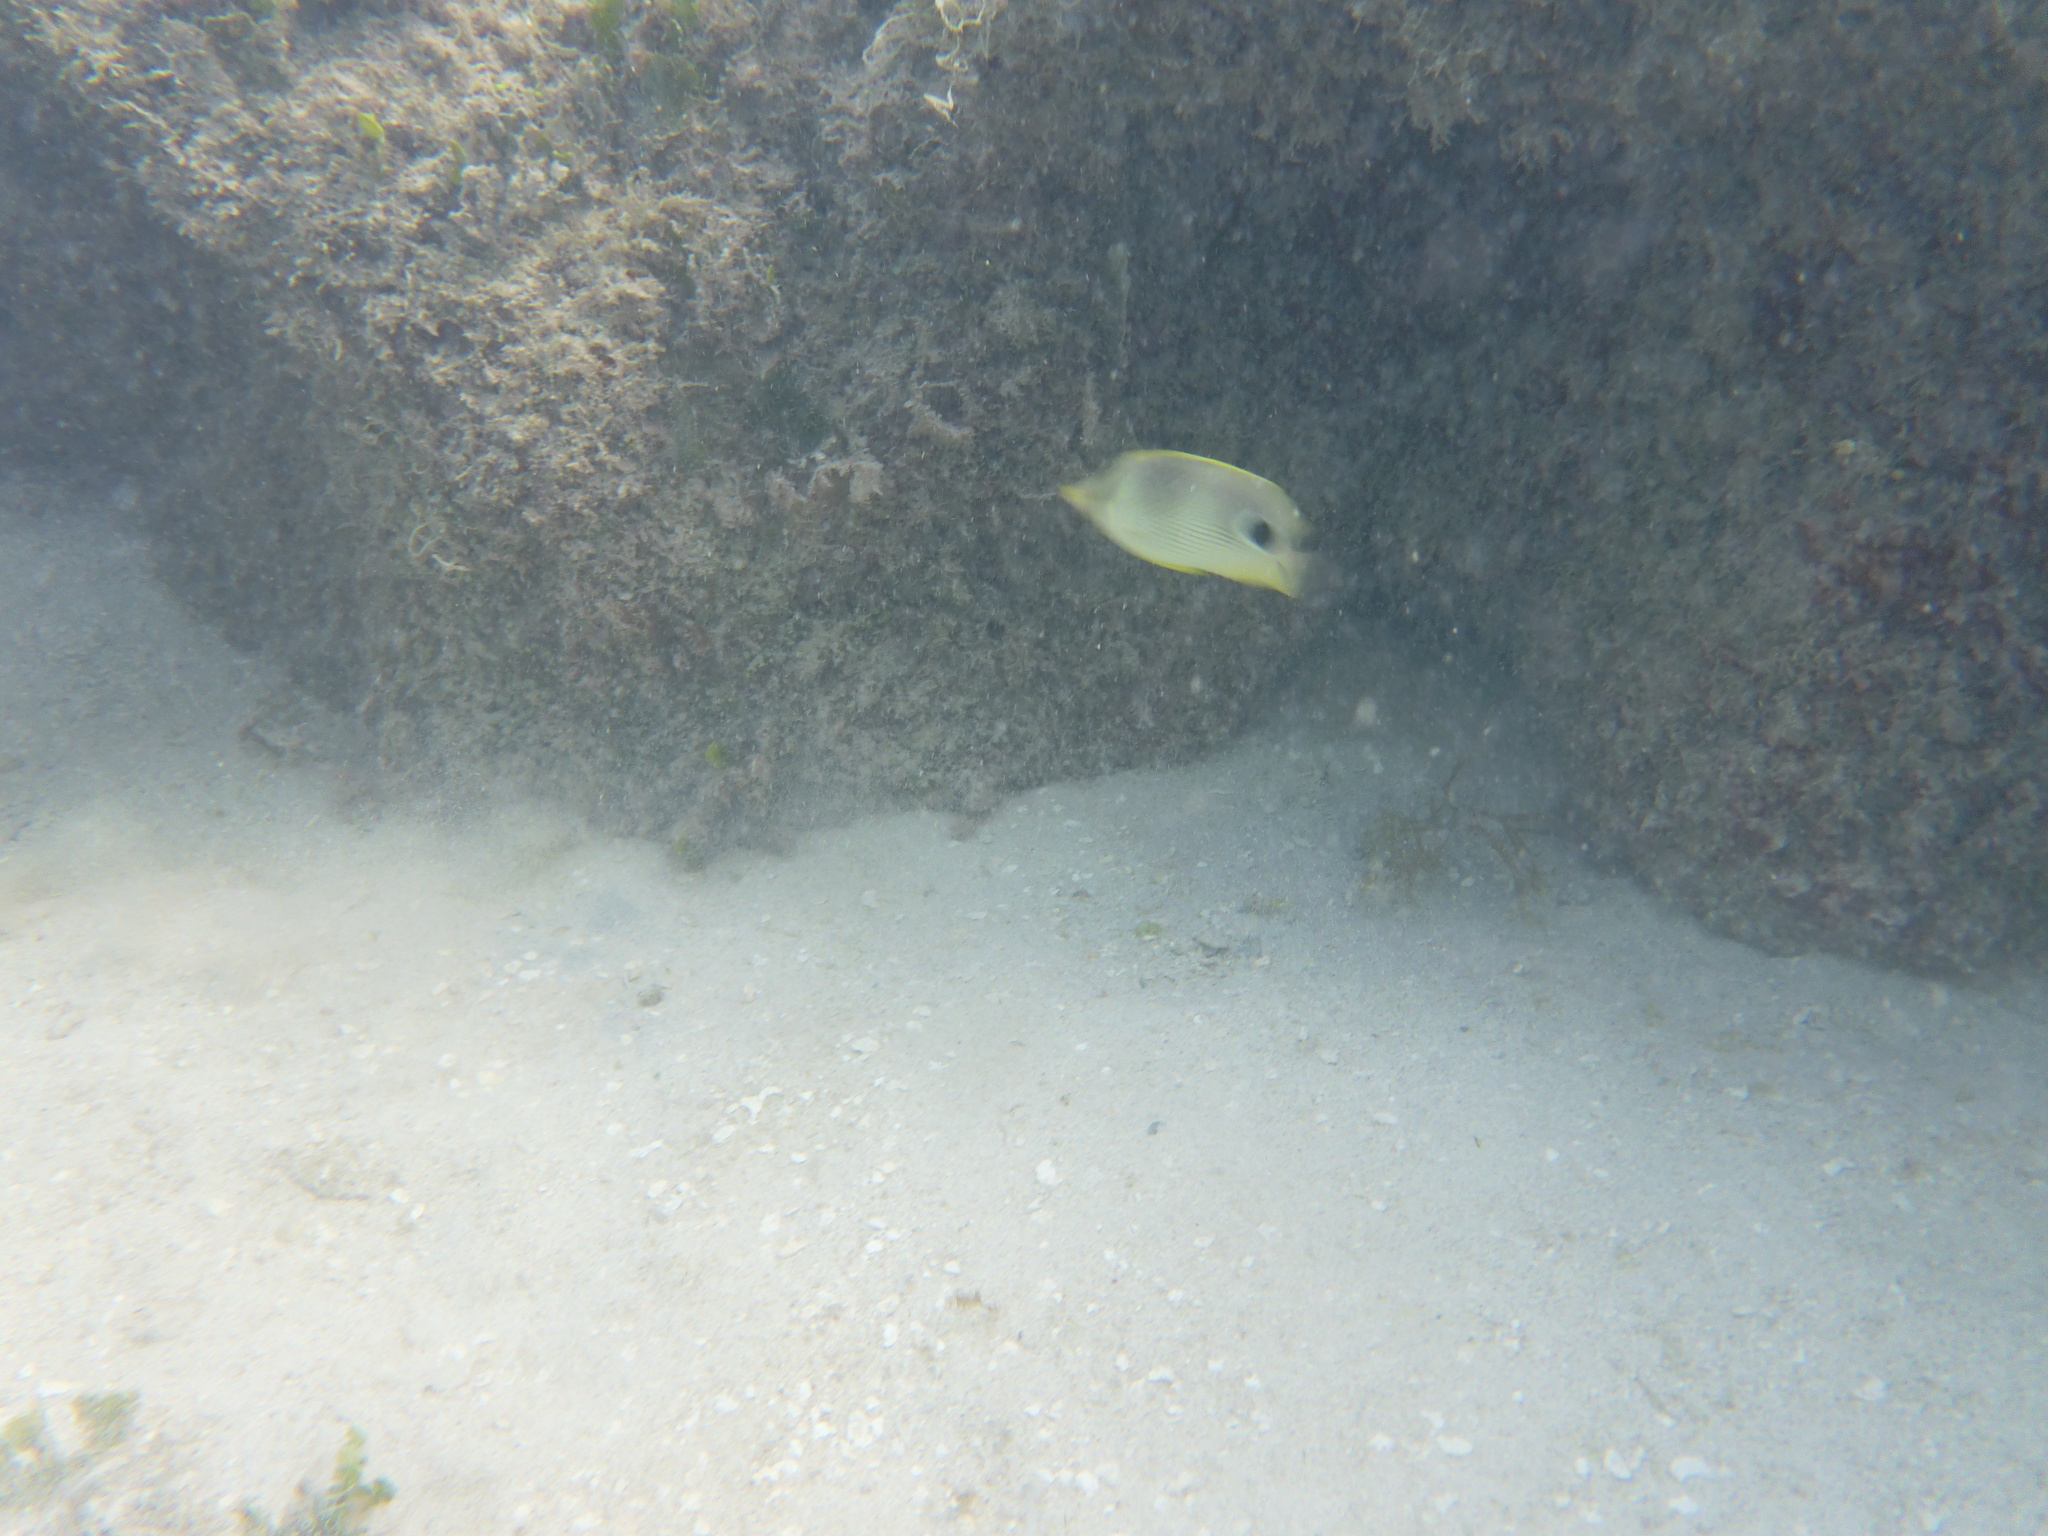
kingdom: Animalia
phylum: Chordata
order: Perciformes
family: Chaetodontidae
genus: Chaetodon
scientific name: Chaetodon capistratus
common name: Kete
